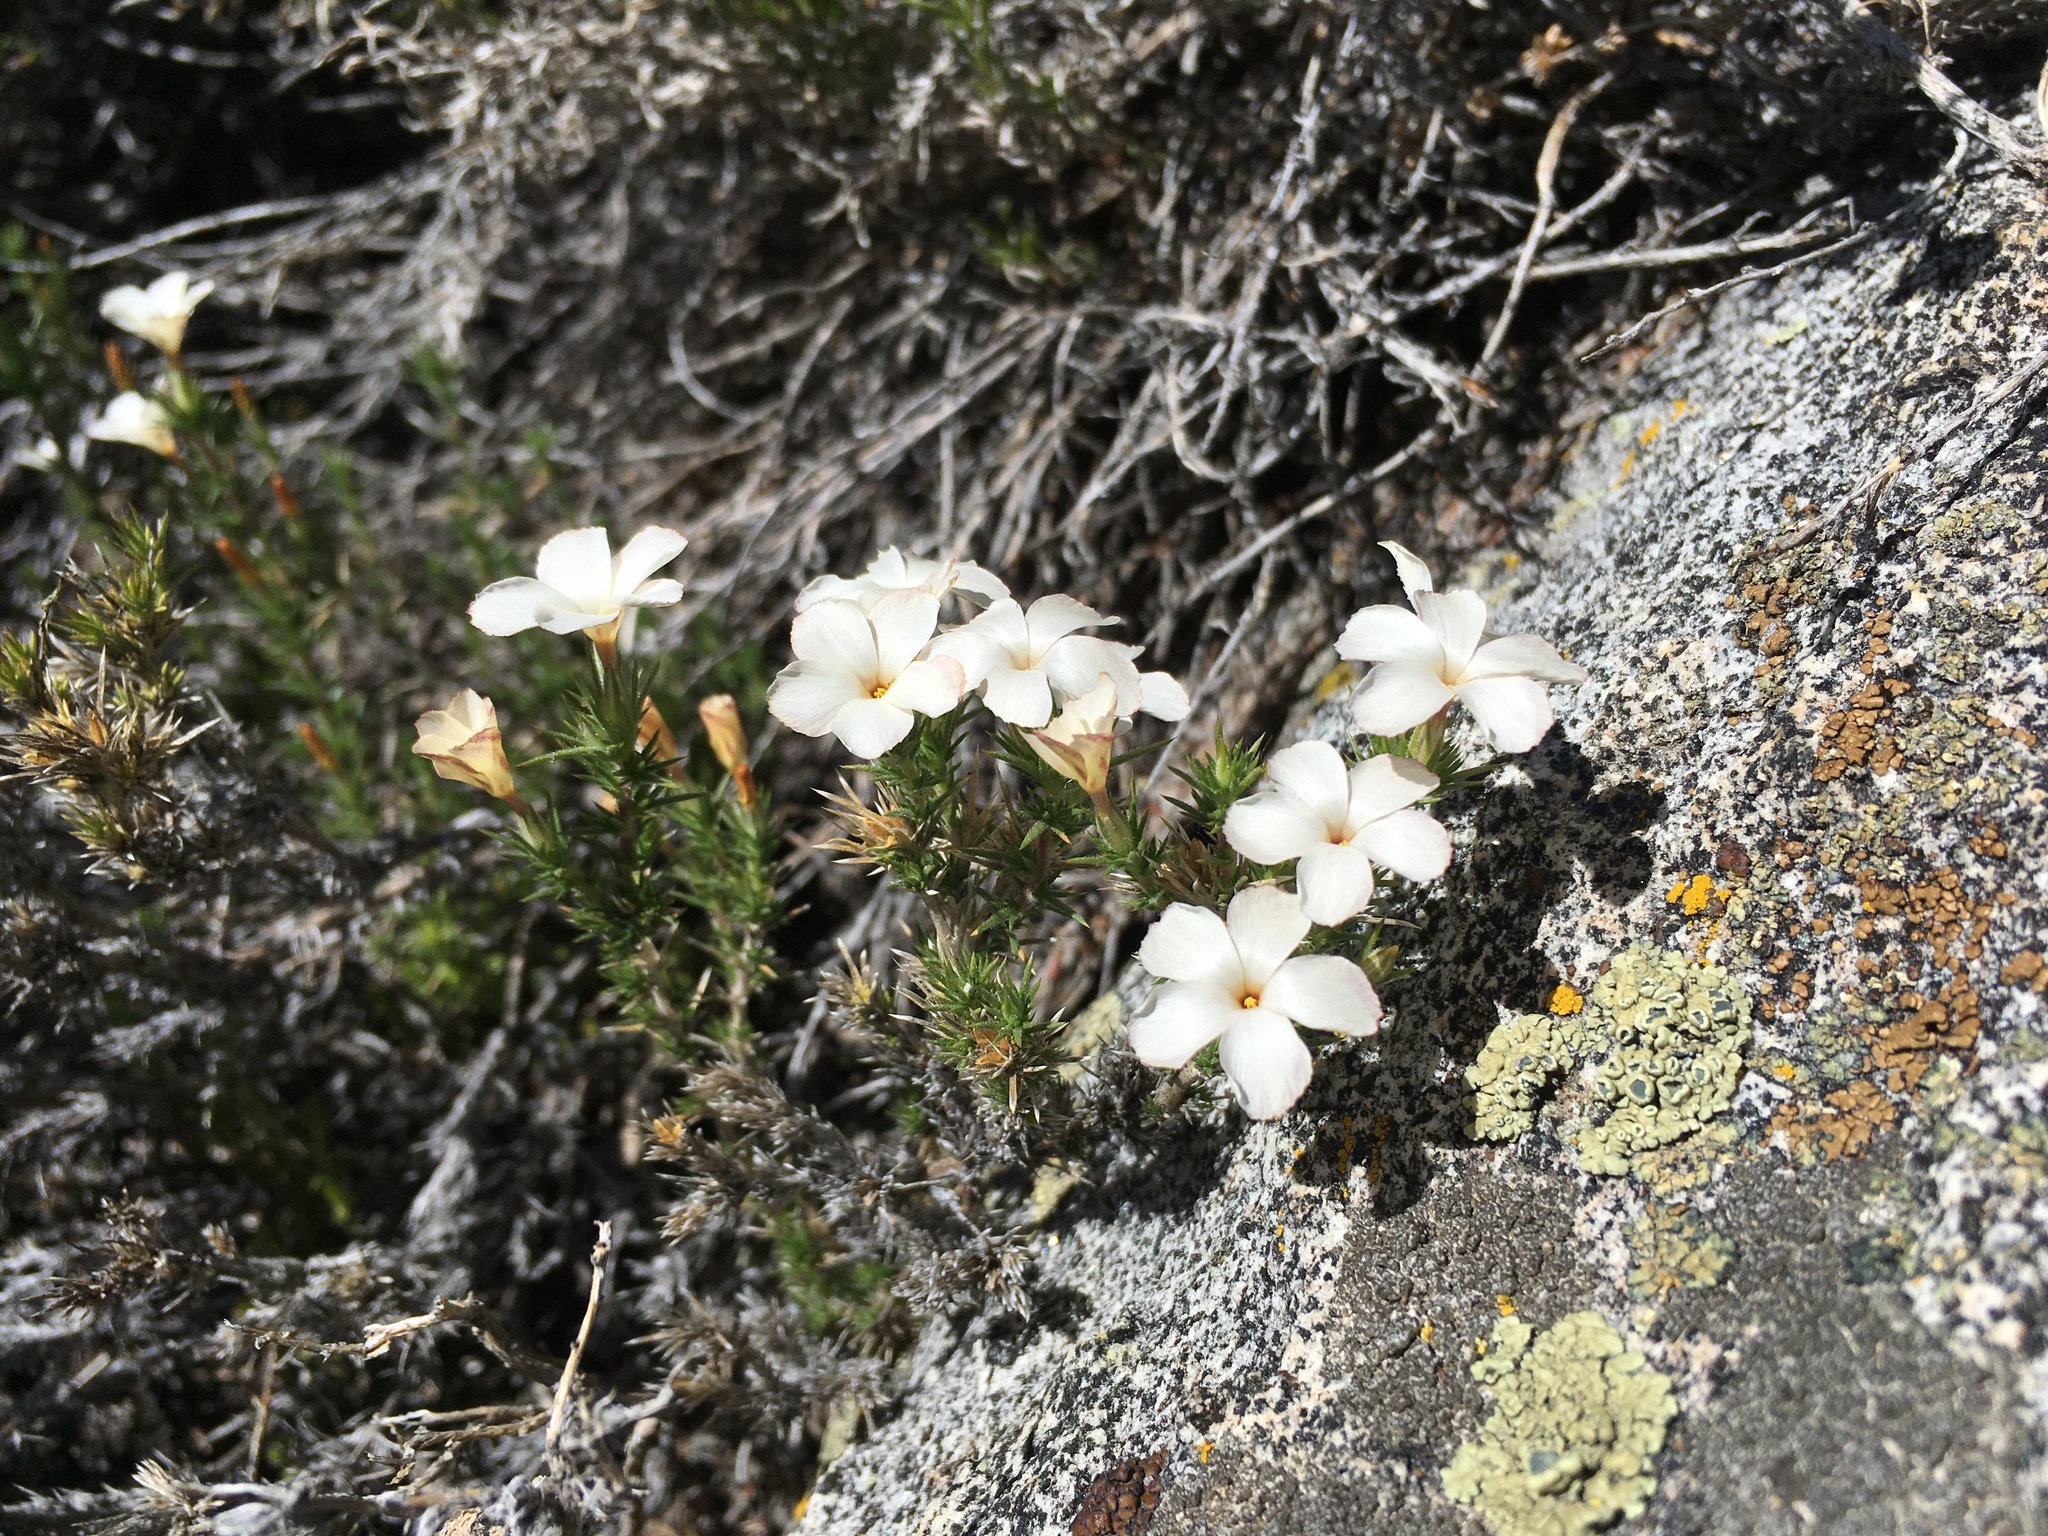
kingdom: Plantae
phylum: Tracheophyta
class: Magnoliopsida
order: Ericales
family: Polemoniaceae
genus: Linanthus
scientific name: Linanthus pungens
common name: Granite prickly phlox
